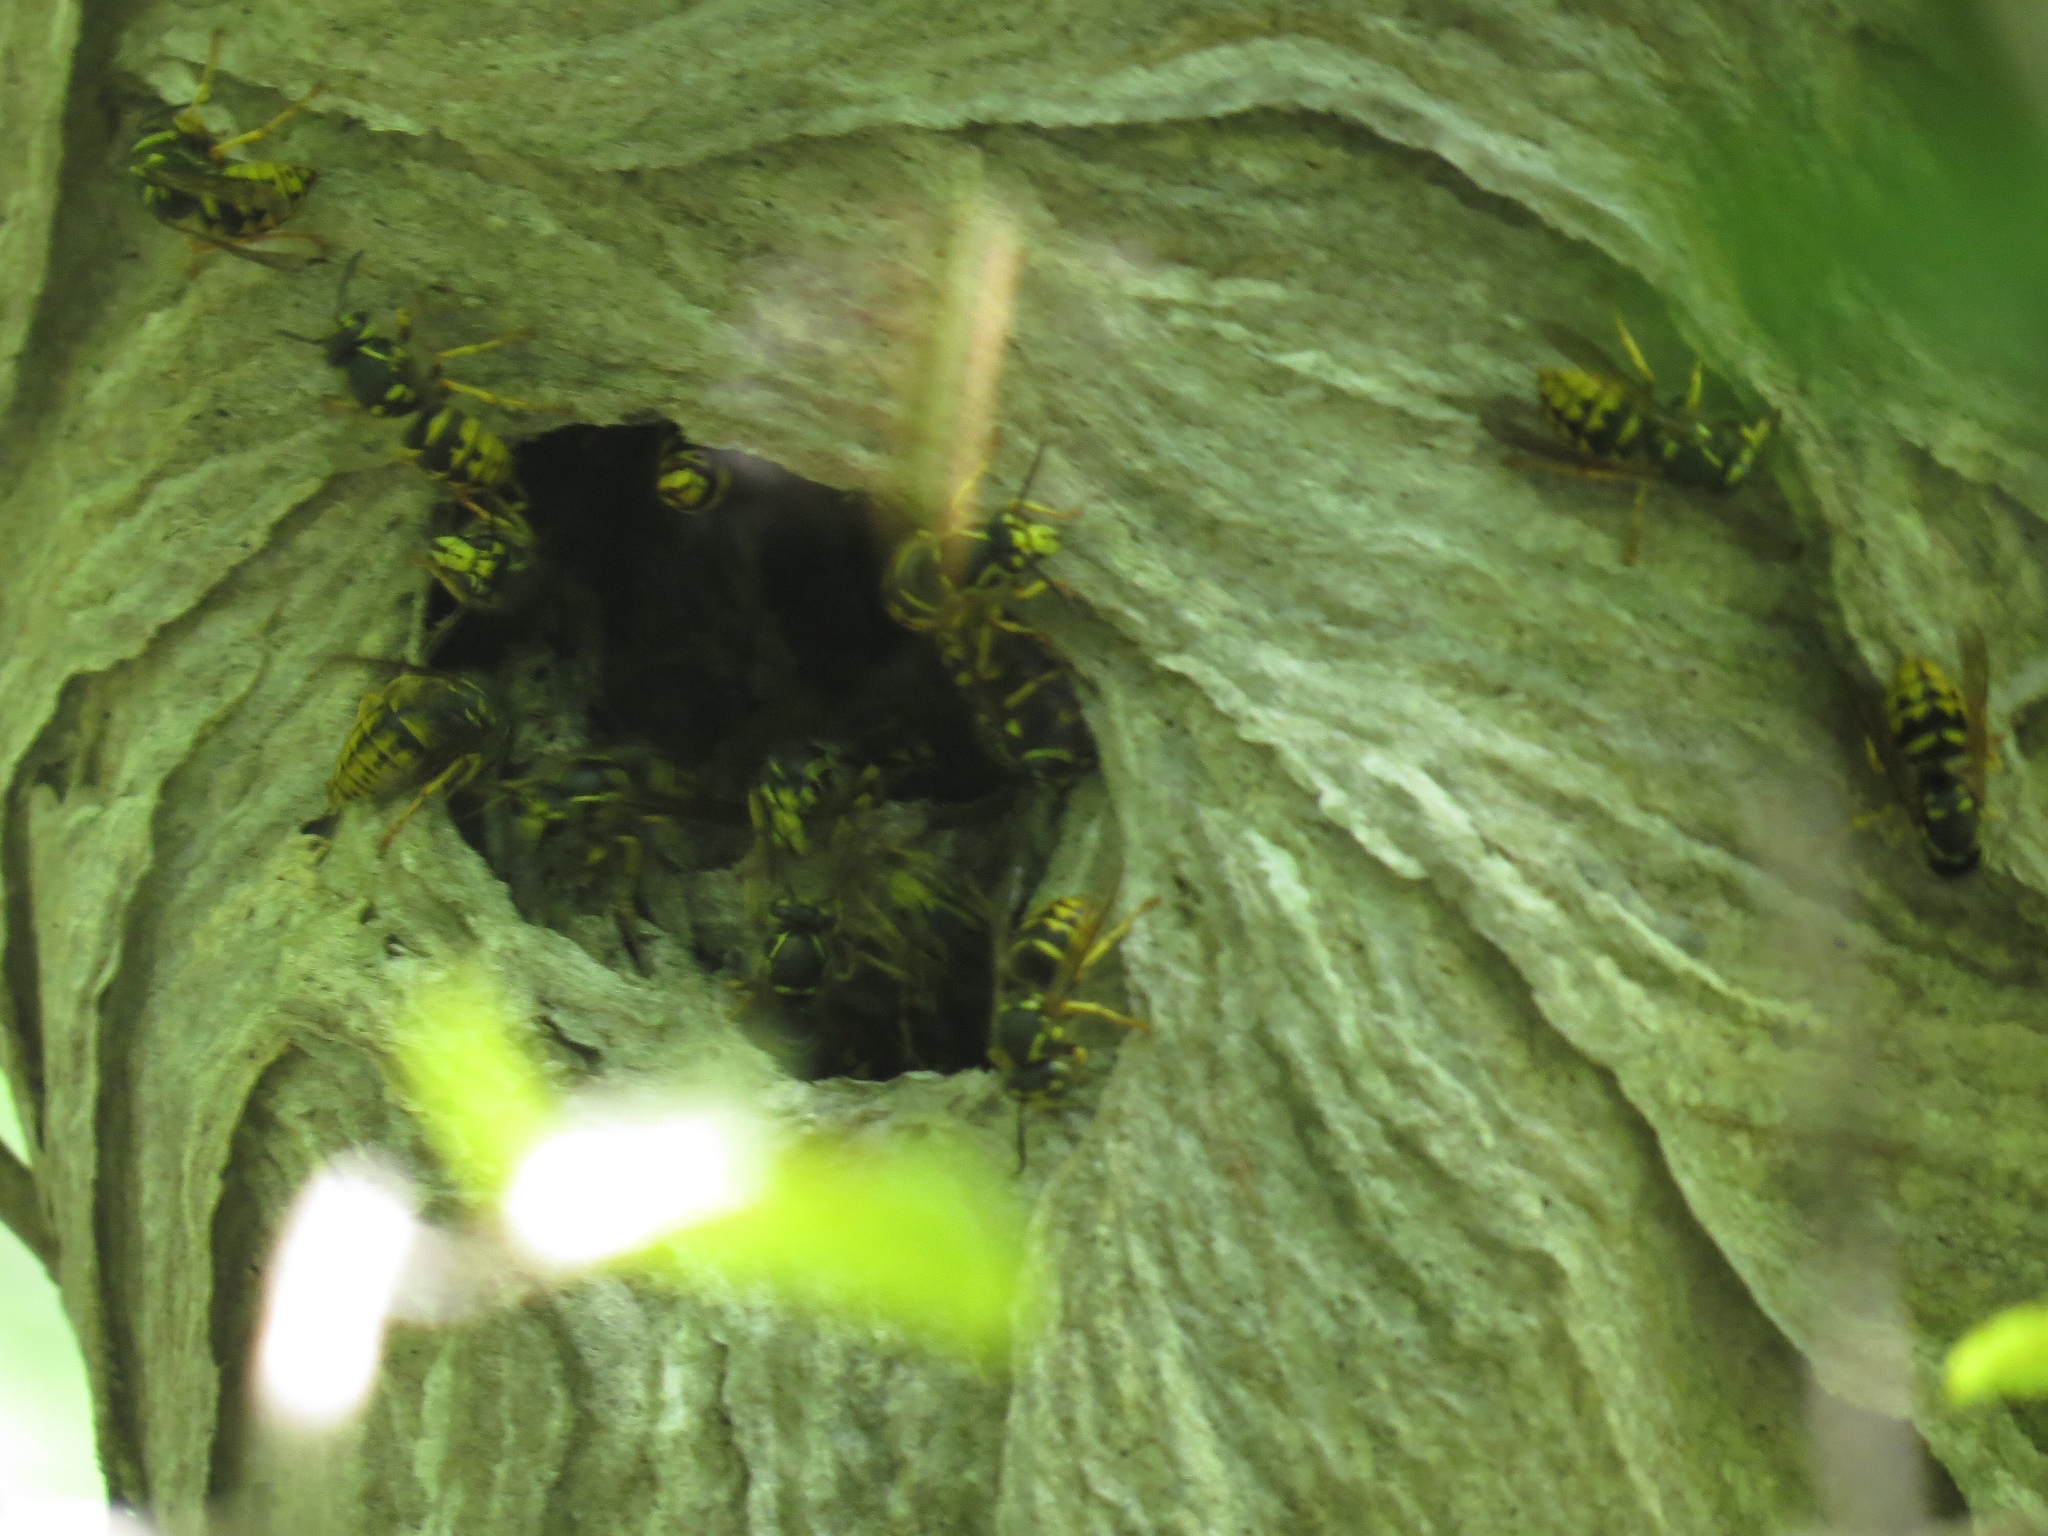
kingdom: Animalia
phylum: Arthropoda
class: Insecta
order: Hymenoptera
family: Vespidae
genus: Dolichovespula
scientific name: Dolichovespula arenaria
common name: Aerial yellowjacket
